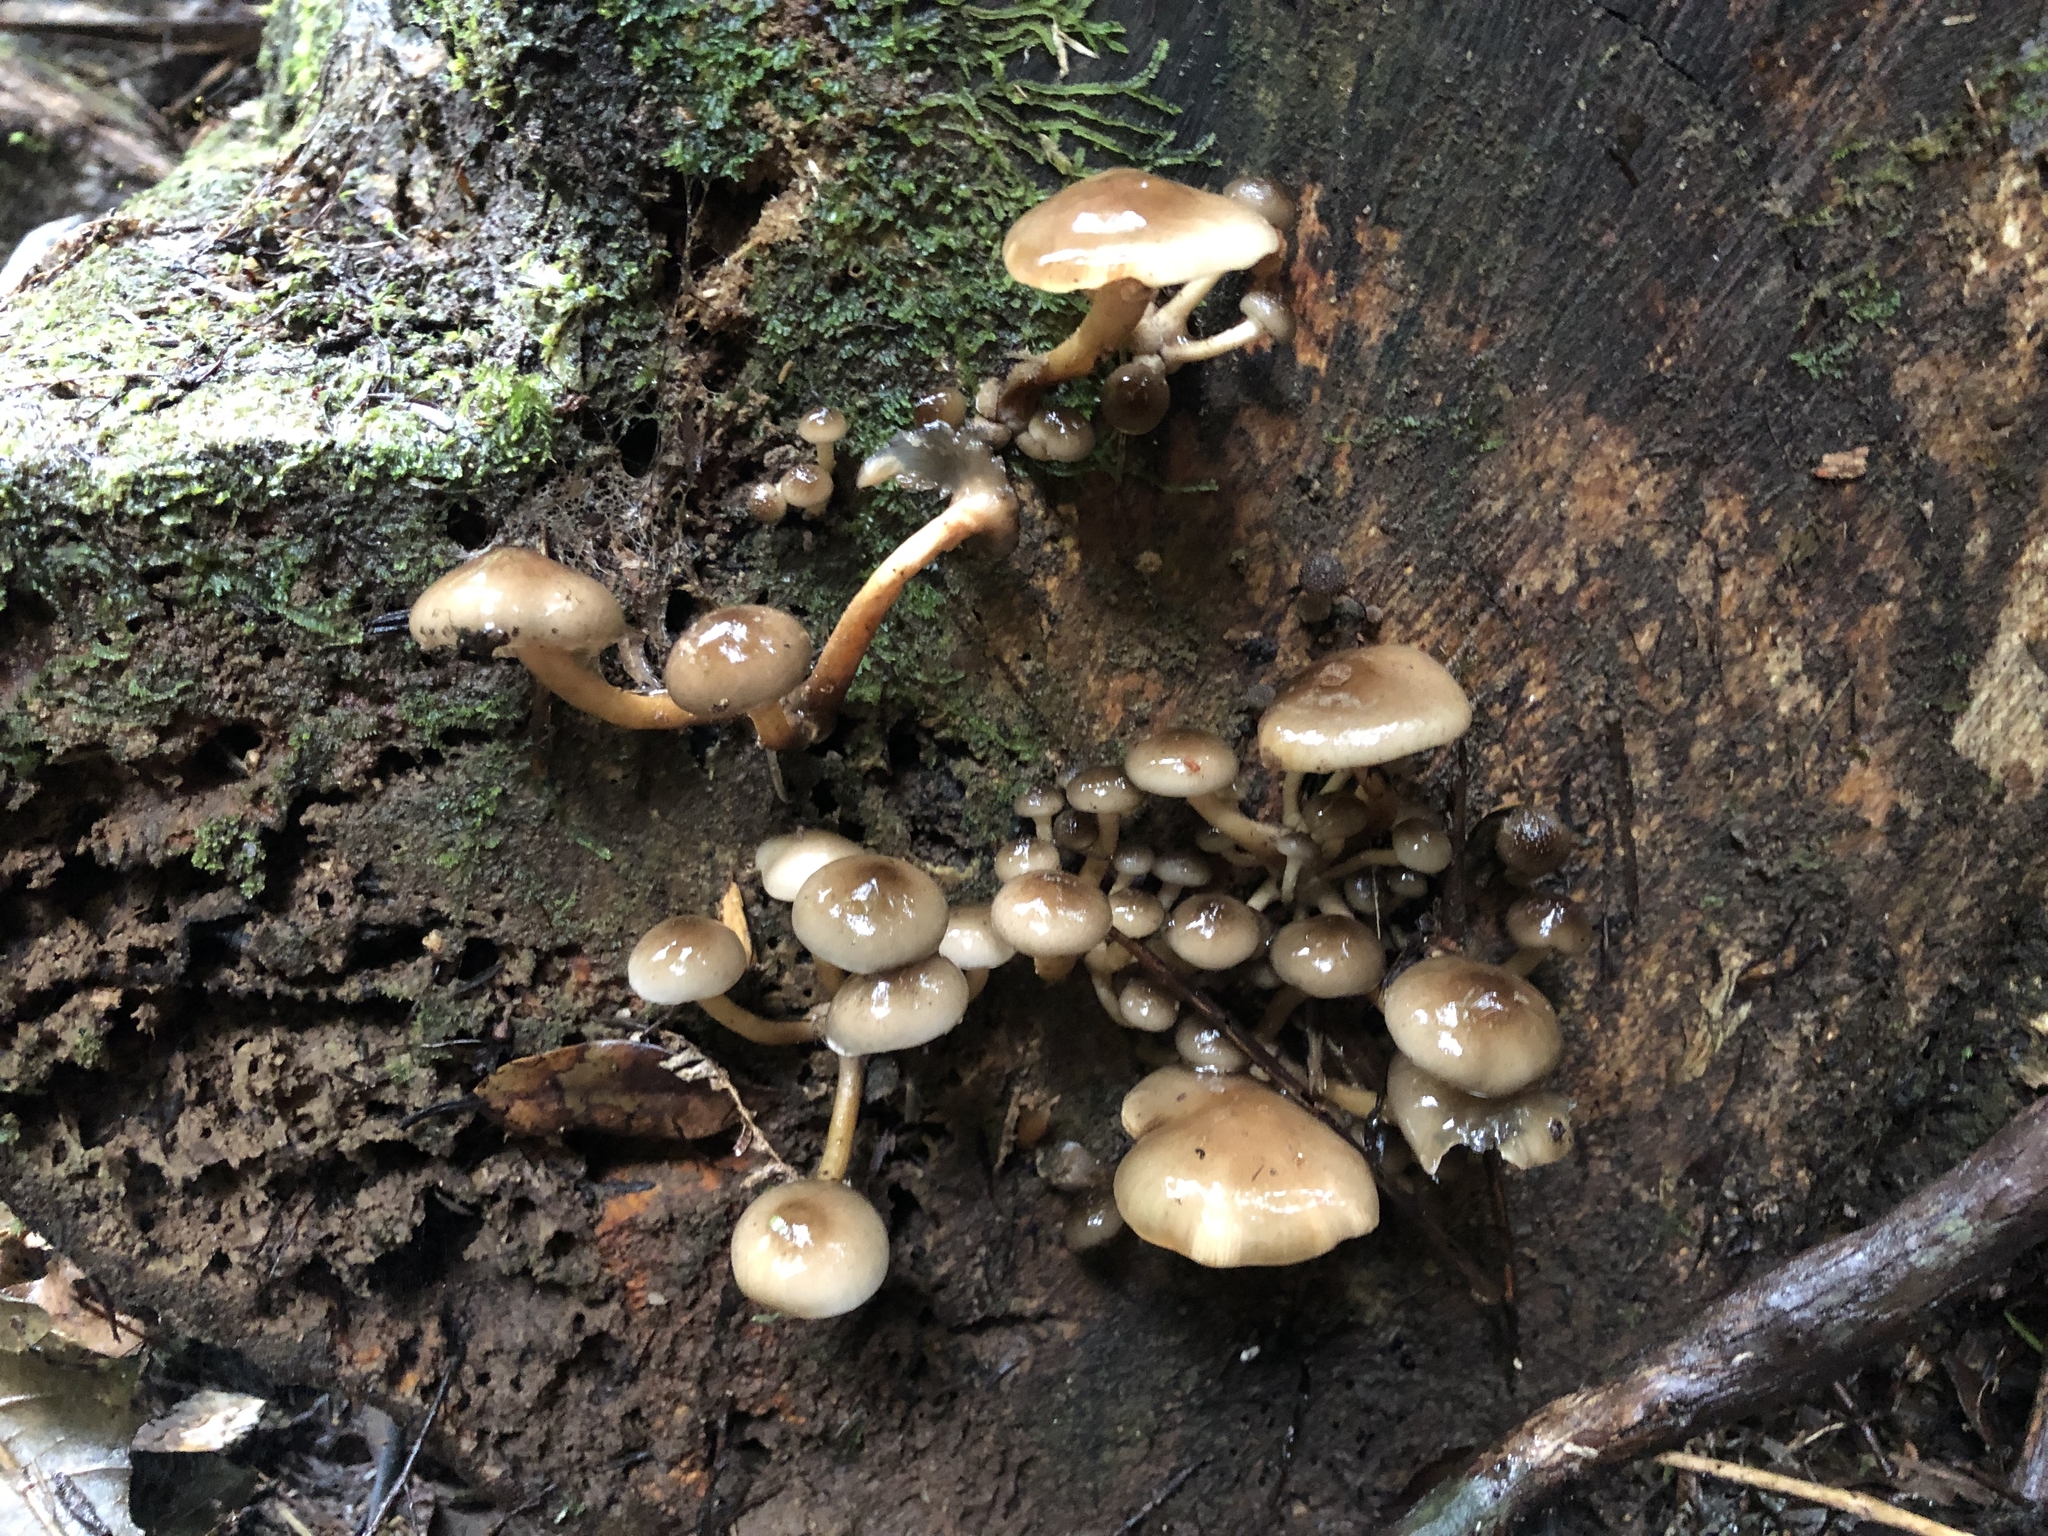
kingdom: Fungi
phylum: Basidiomycota
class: Agaricomycetes
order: Agaricales
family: Physalacriaceae
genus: Armillaria
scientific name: Armillaria novae-zelandiae
